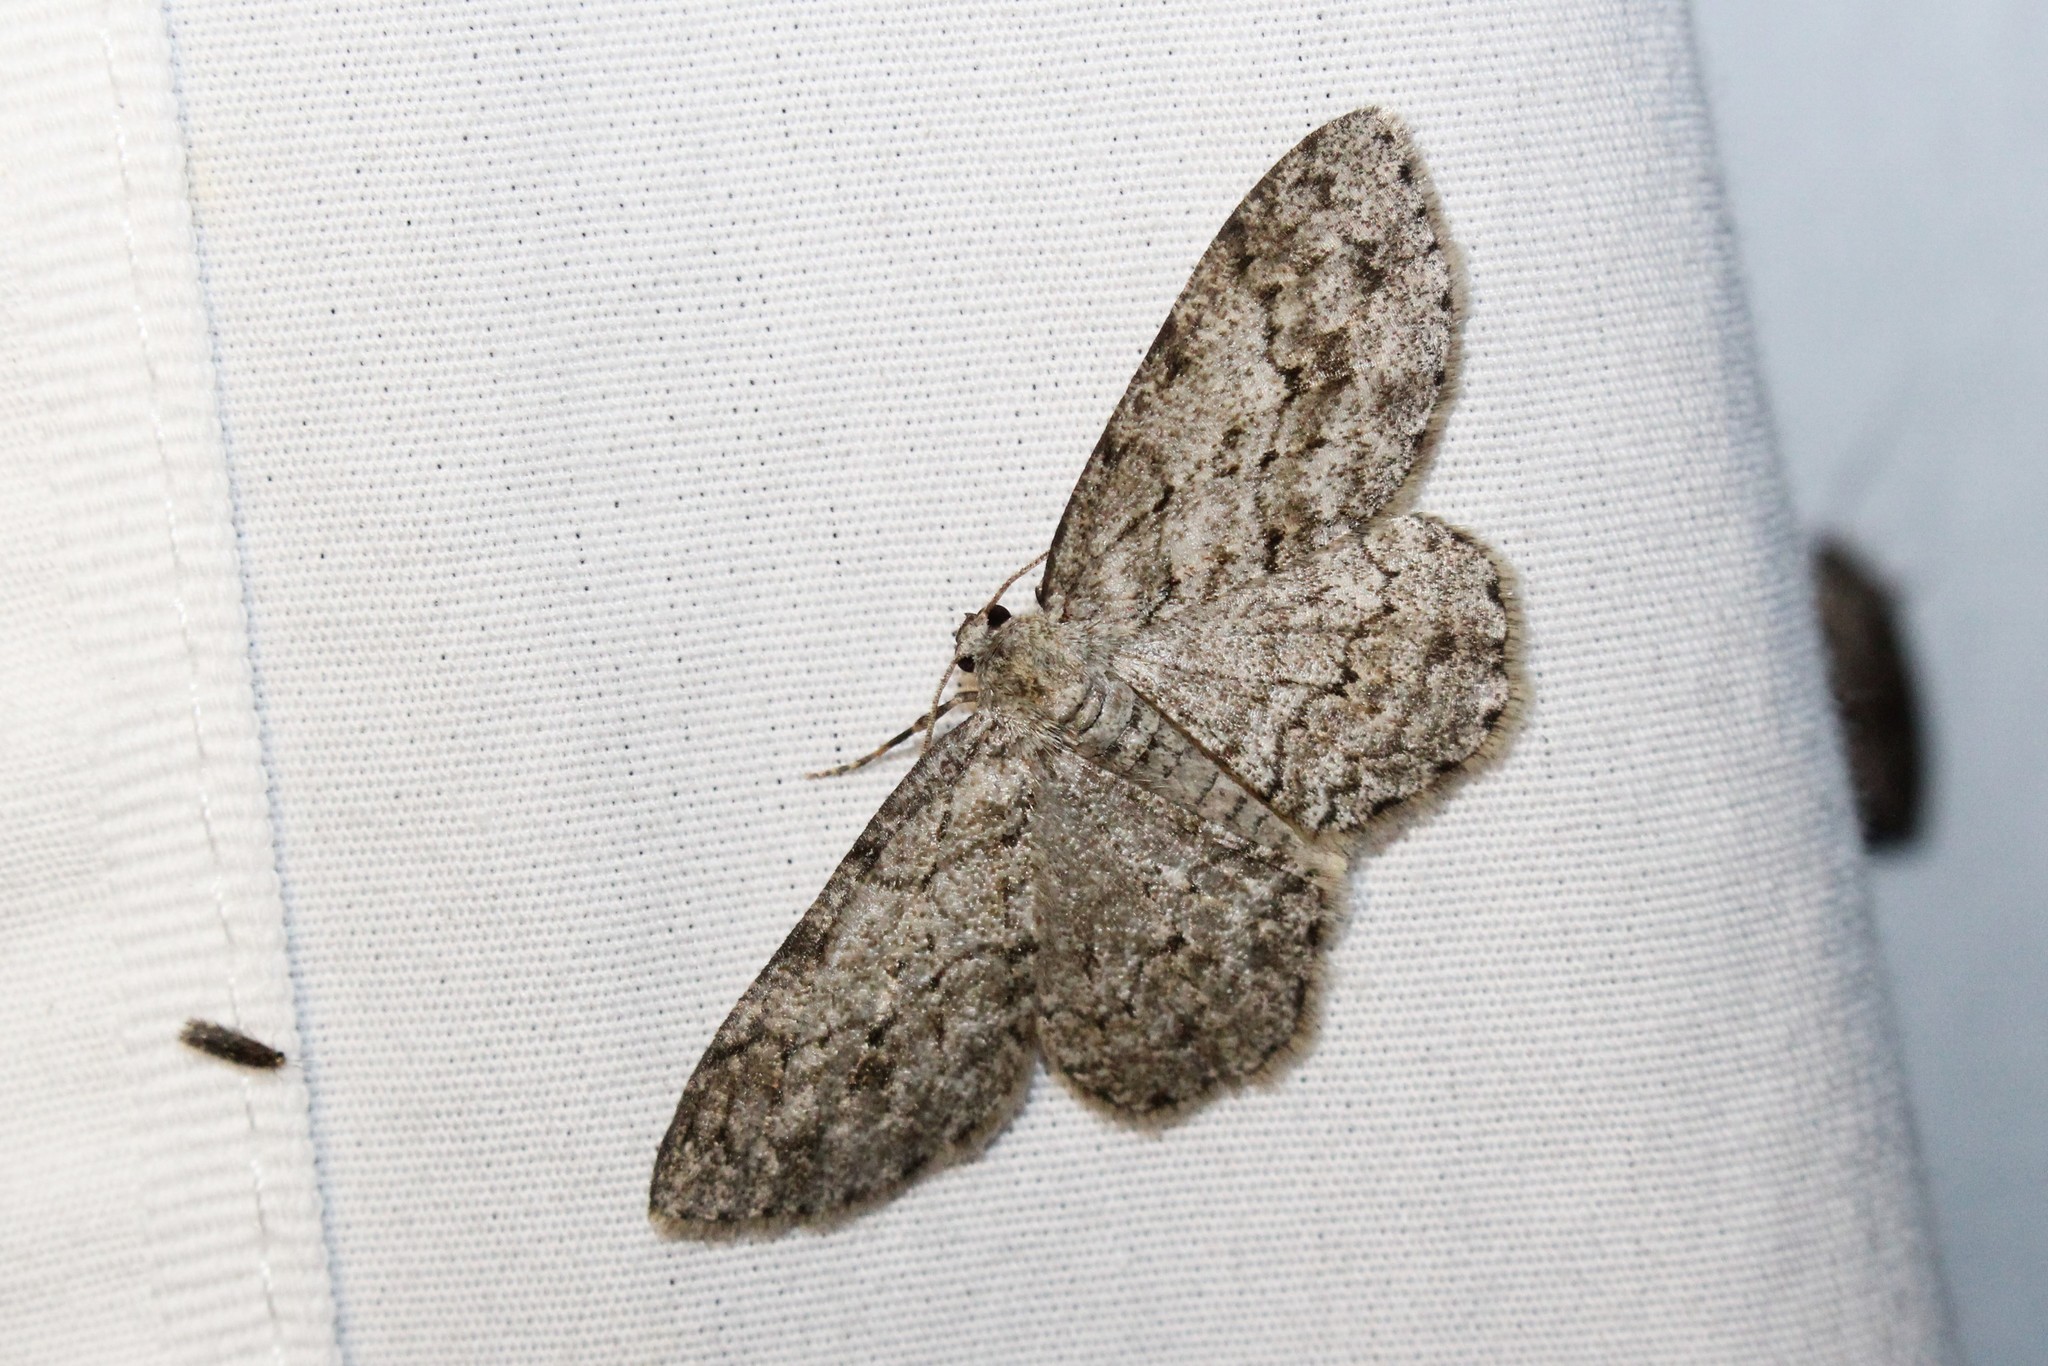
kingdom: Animalia
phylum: Arthropoda
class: Insecta
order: Lepidoptera
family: Geometridae
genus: Ectropis
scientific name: Ectropis crepuscularia
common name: Engrailed
